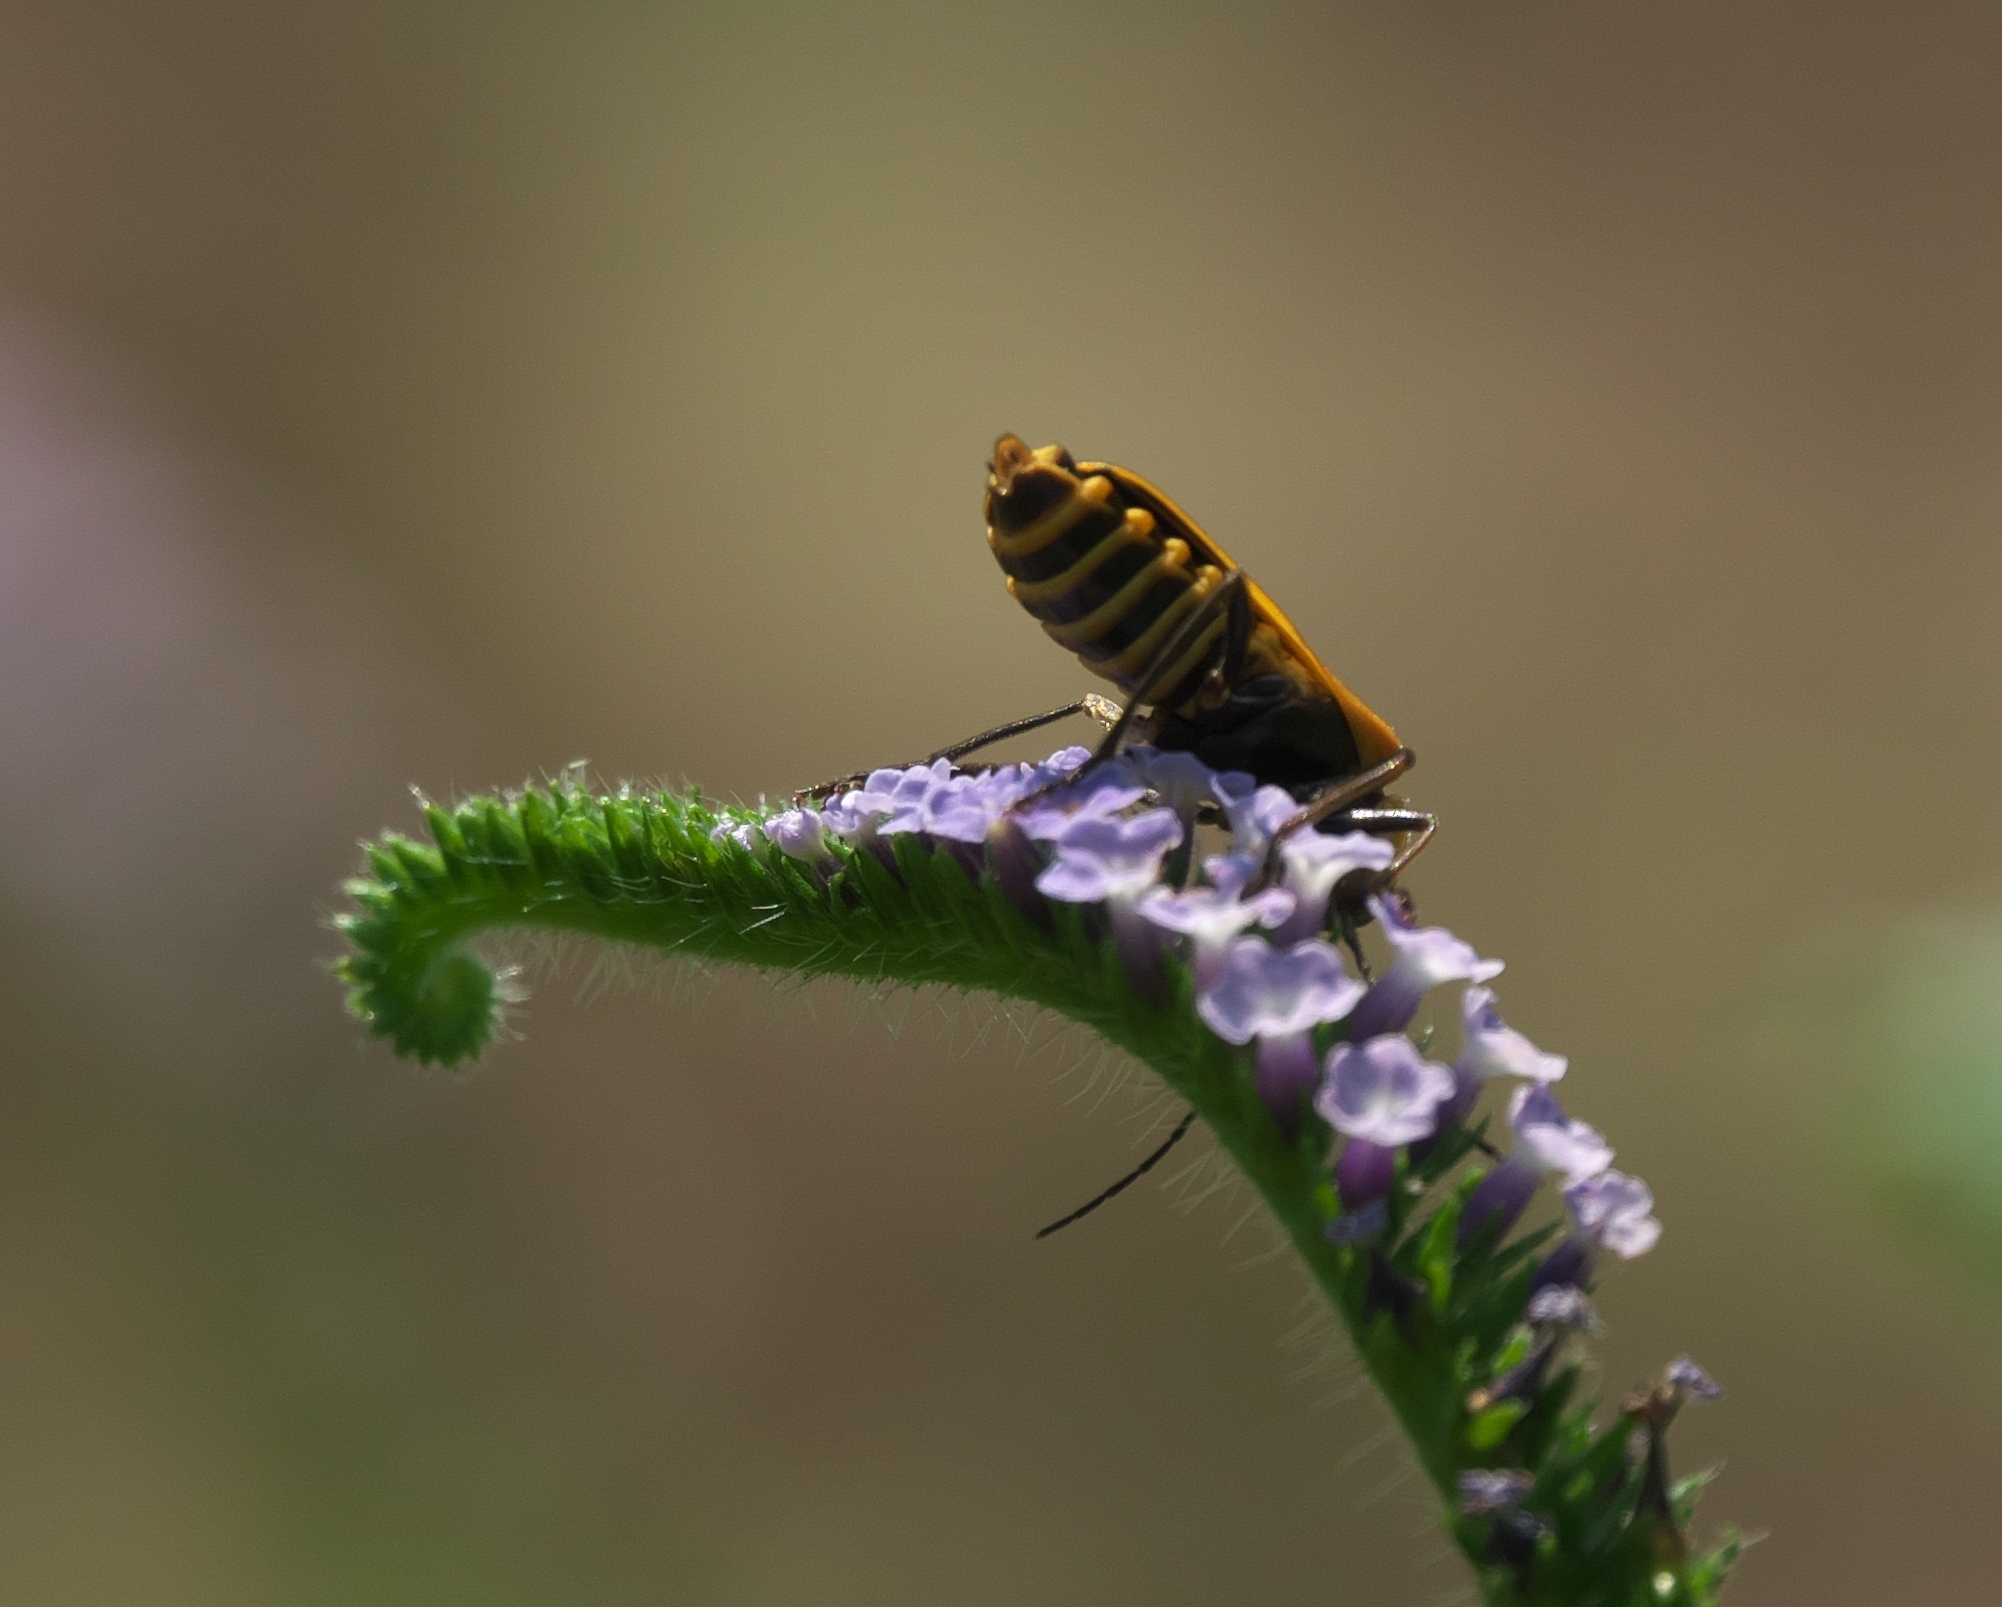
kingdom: Animalia
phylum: Arthropoda
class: Insecta
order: Coleoptera
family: Cantharidae
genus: Chauliognathus
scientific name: Chauliognathus pensylvanicus
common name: Goldenrod soldier beetle
